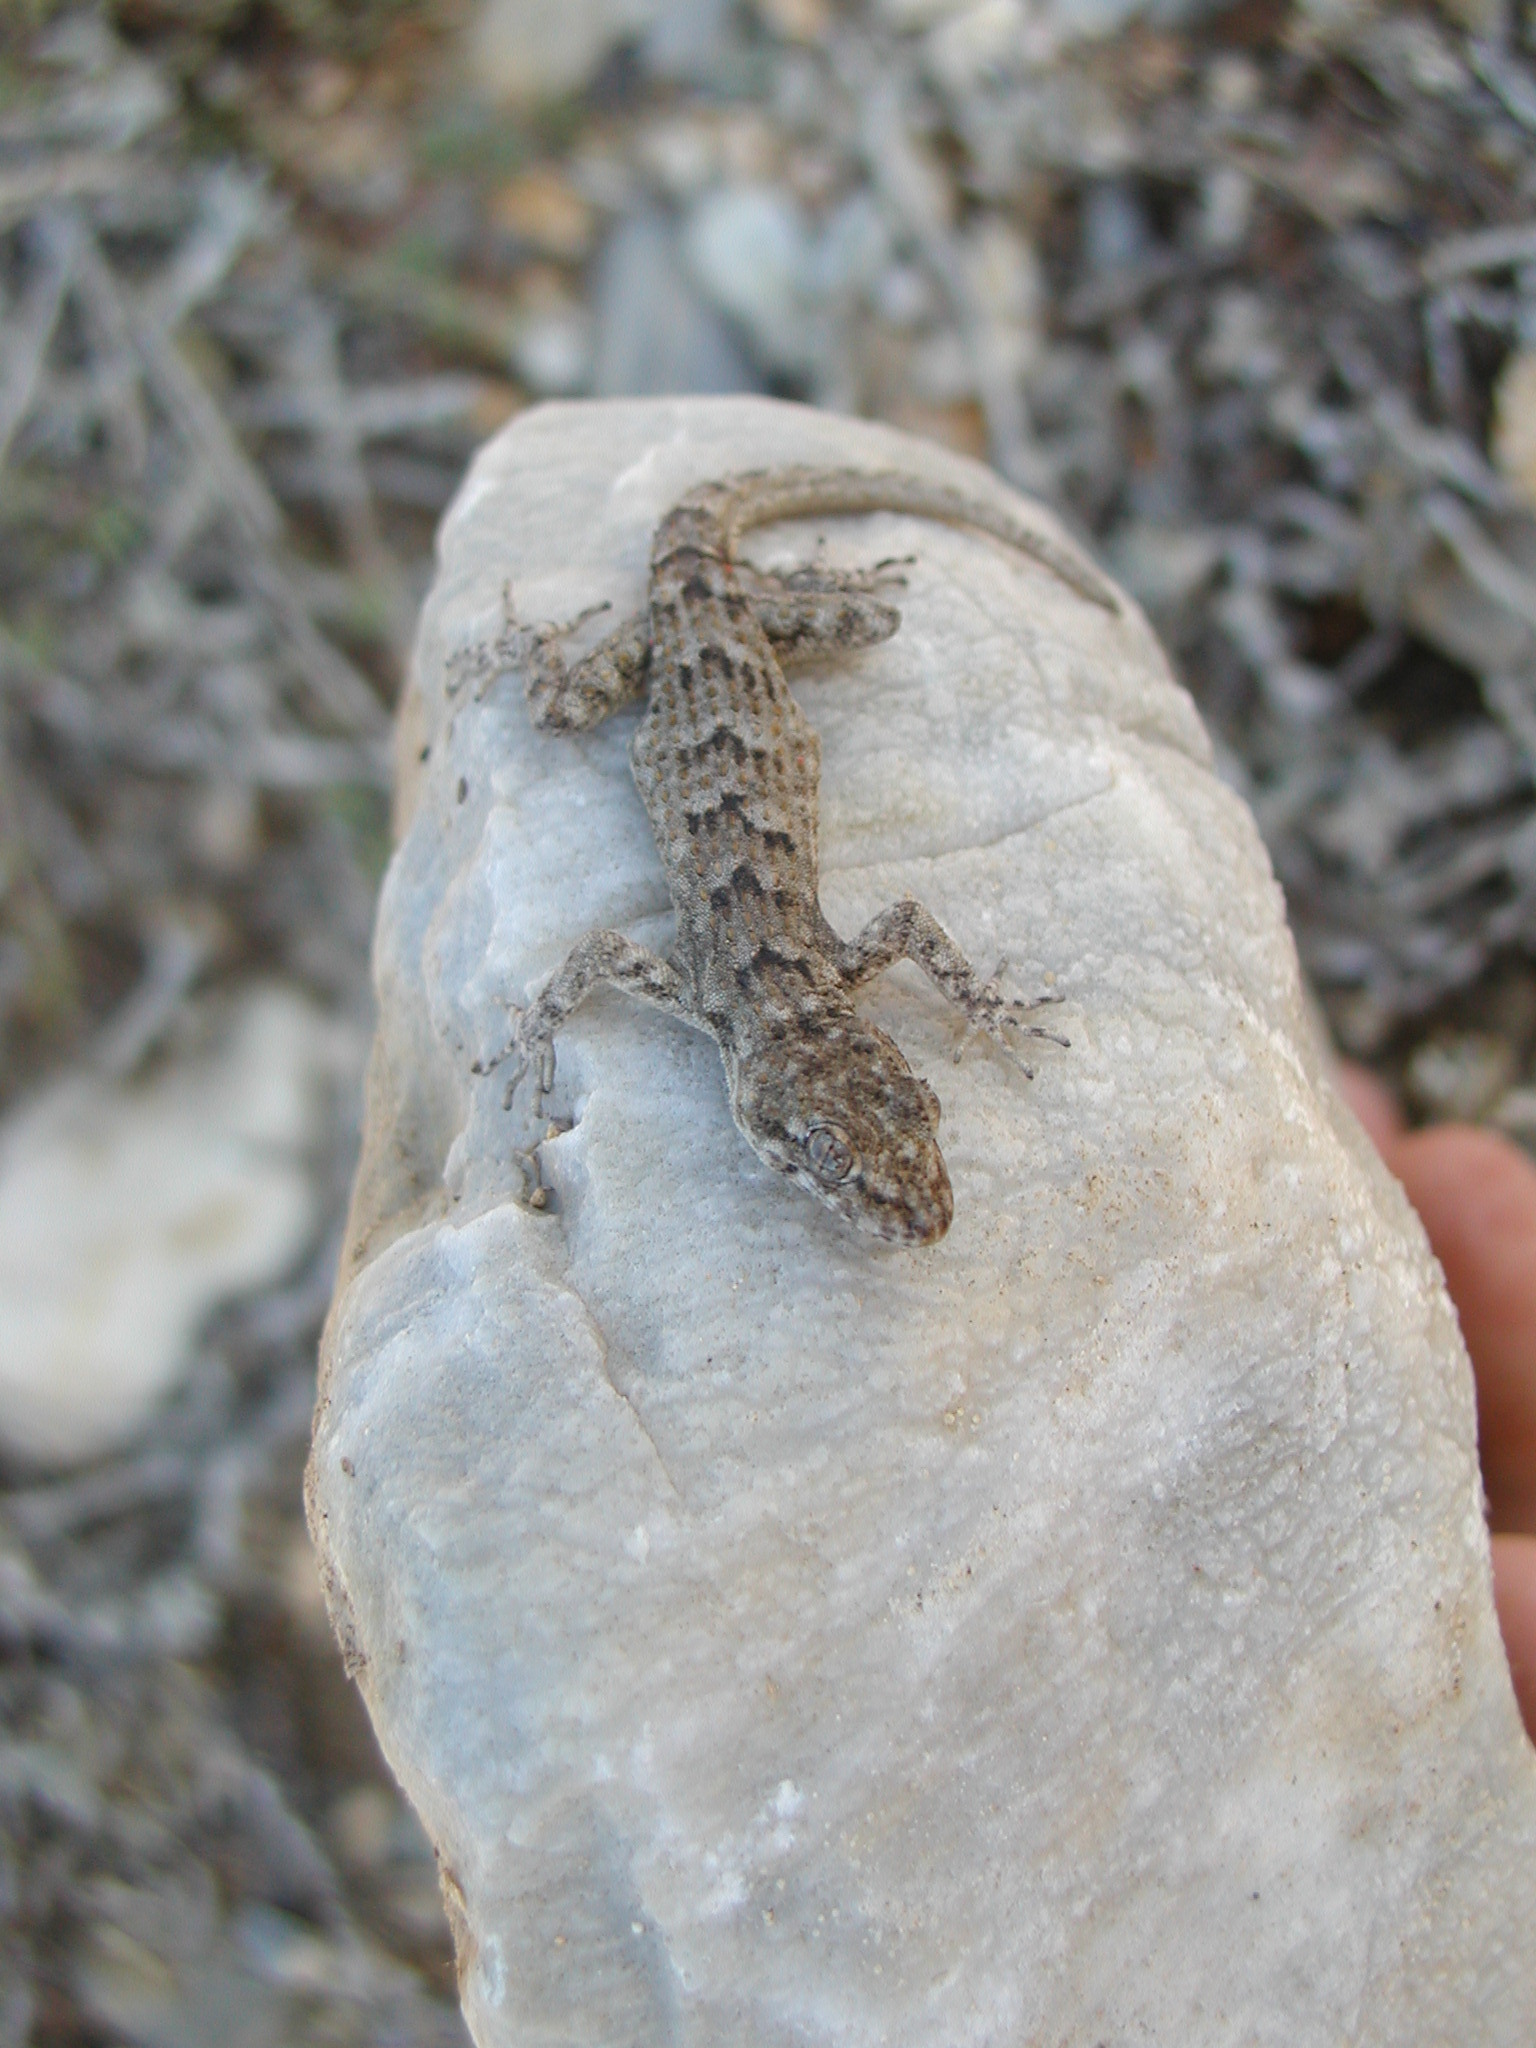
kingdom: Animalia
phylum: Chordata
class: Squamata
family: Gekkonidae
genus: Mediodactylus
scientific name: Mediodactylus kotschyi
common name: Kotschy's gecko
